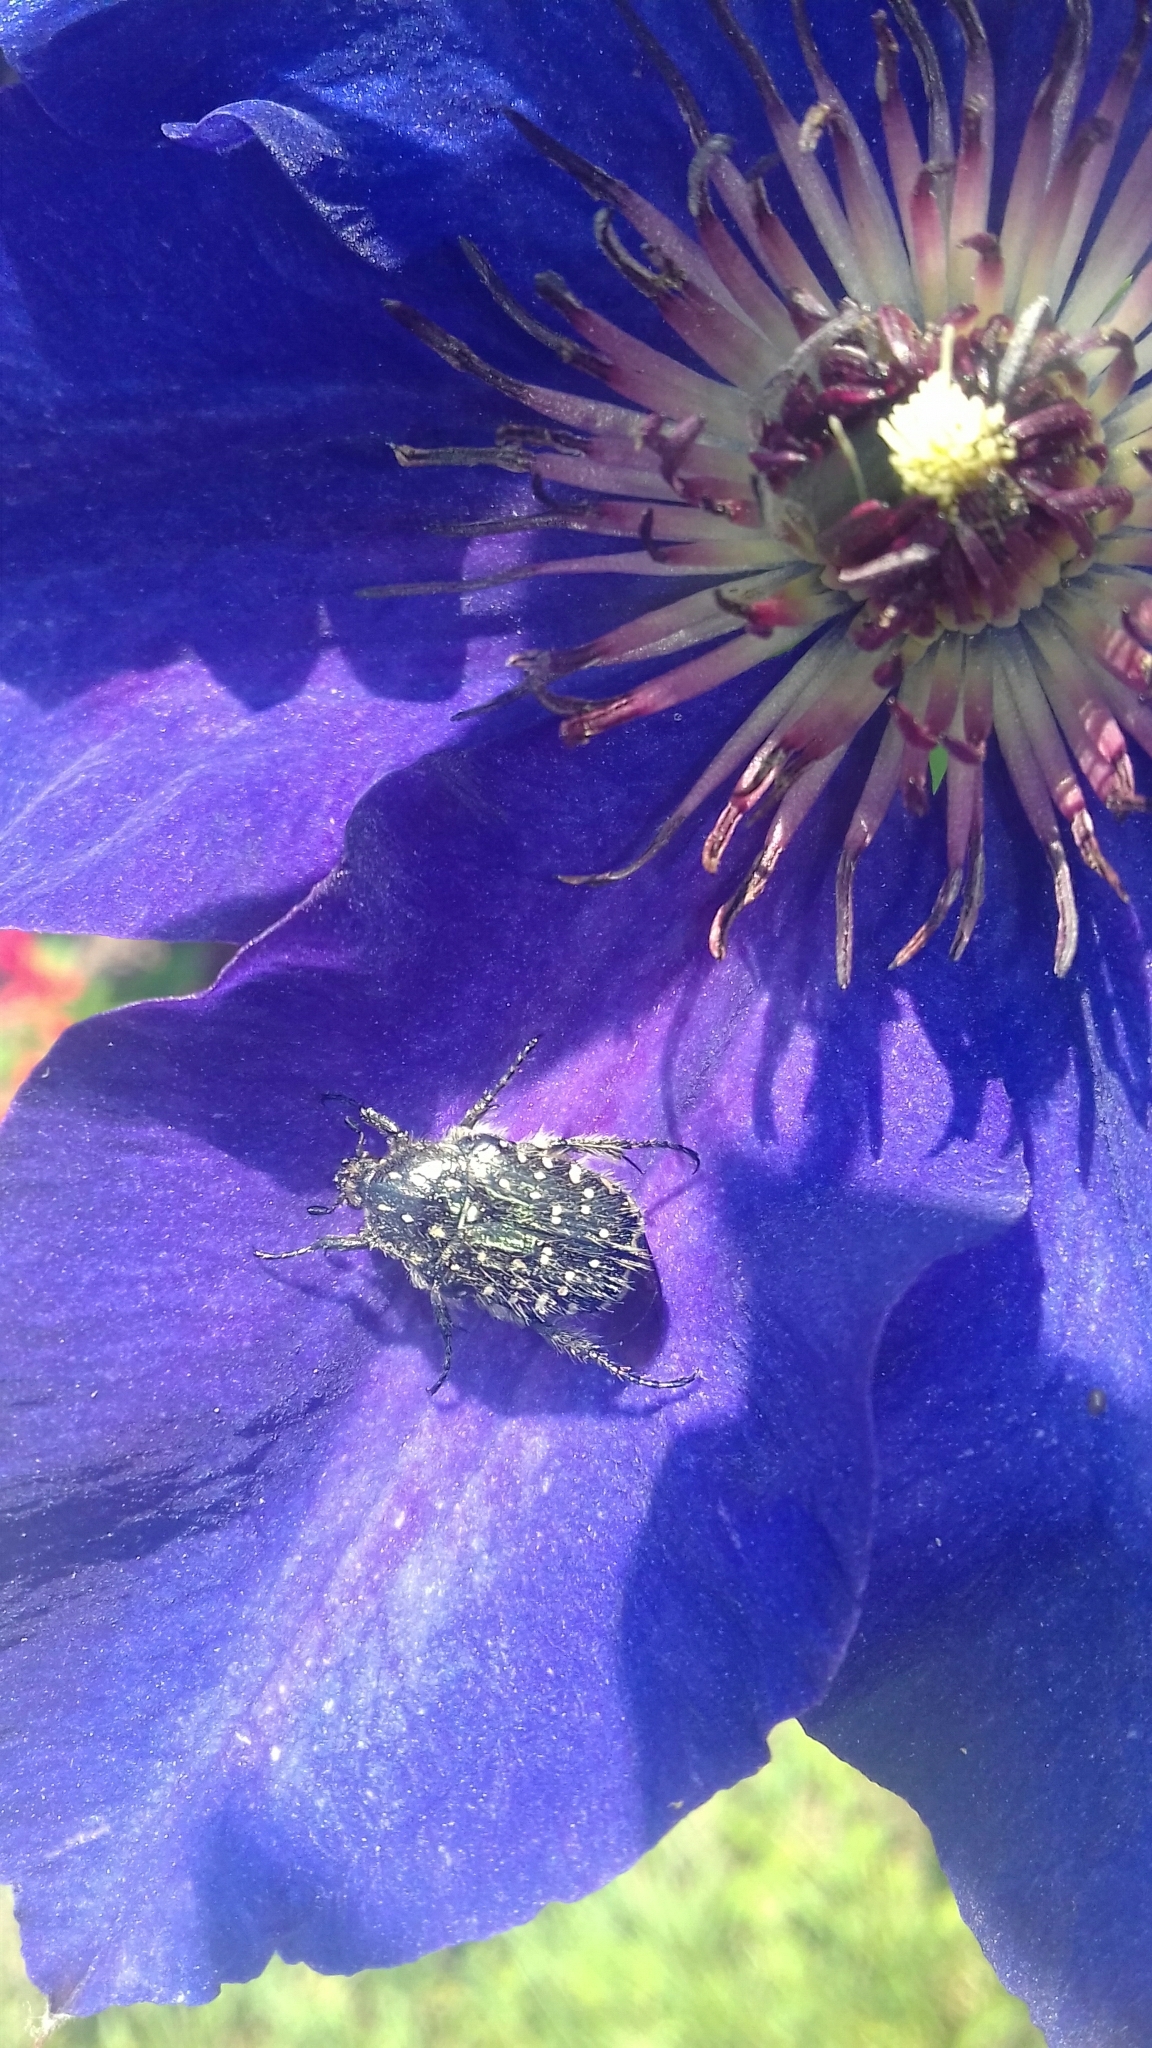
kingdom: Animalia
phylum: Arthropoda
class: Insecta
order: Coleoptera
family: Scarabaeidae
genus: Oxythyrea
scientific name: Oxythyrea funesta
